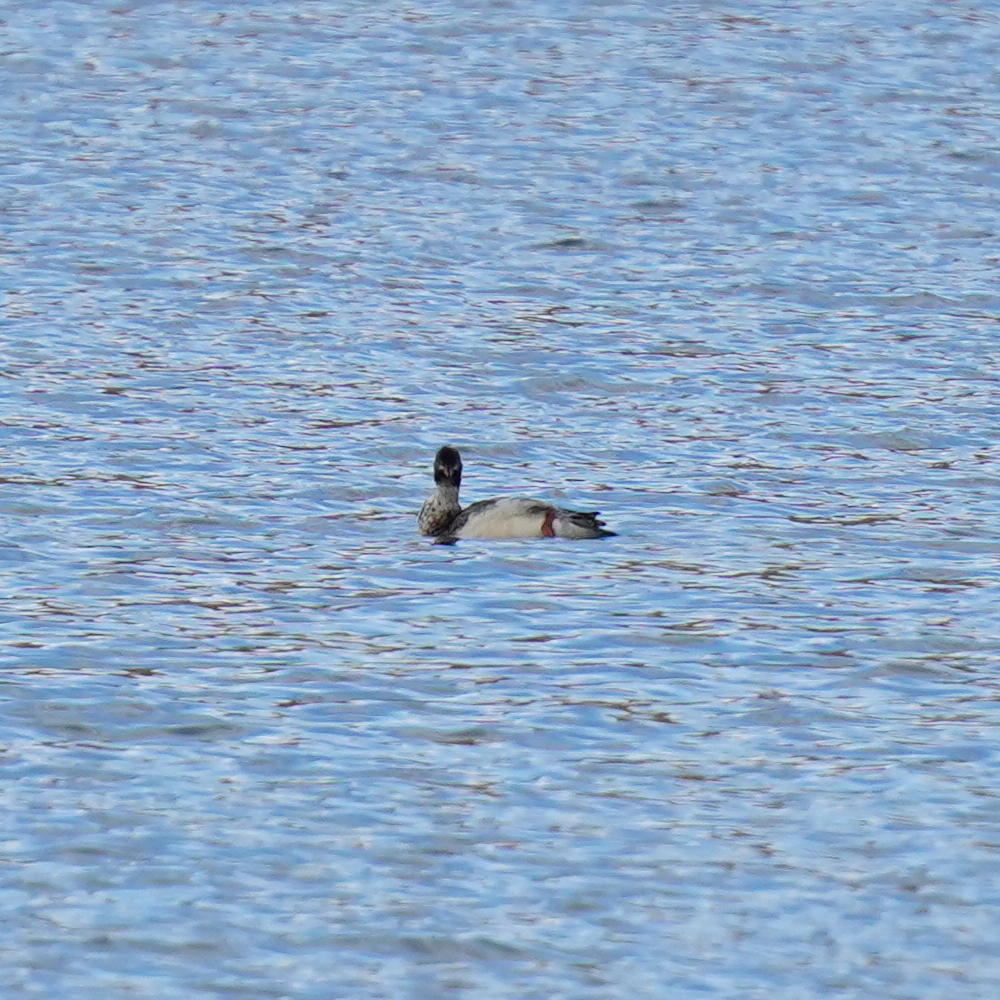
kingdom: Animalia
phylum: Chordata
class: Aves
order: Anseriformes
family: Anatidae
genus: Mergus
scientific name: Mergus serrator
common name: Red-breasted merganser
